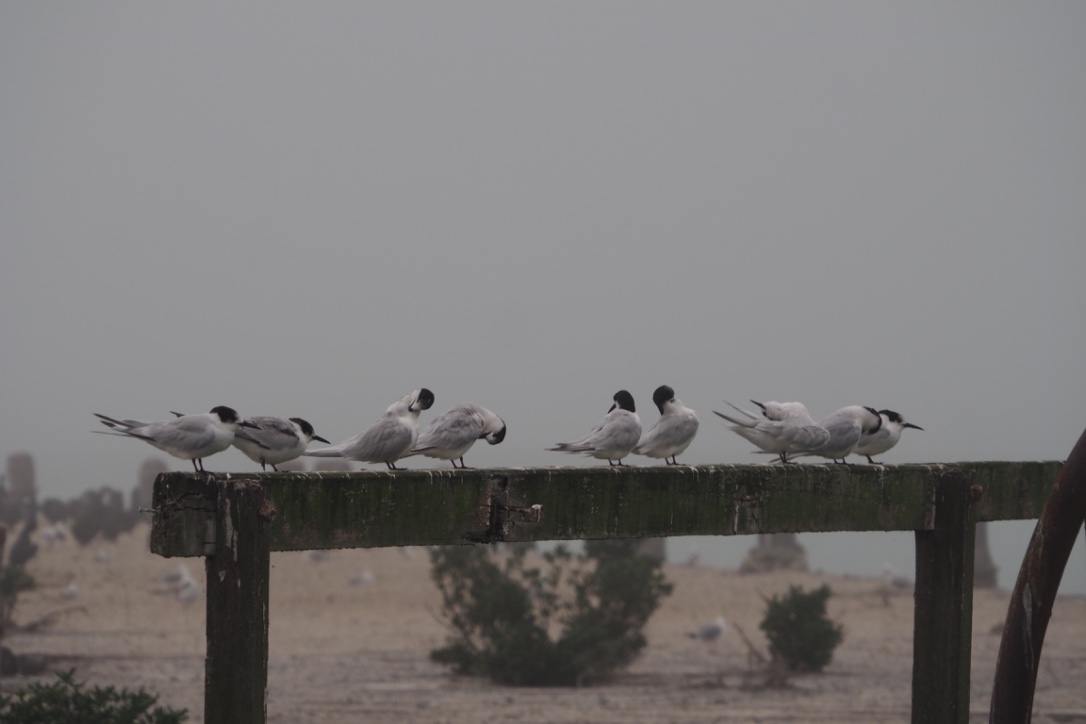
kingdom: Animalia
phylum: Chordata
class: Aves
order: Charadriiformes
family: Laridae
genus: Sterna
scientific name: Sterna striata
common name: White-fronted tern
